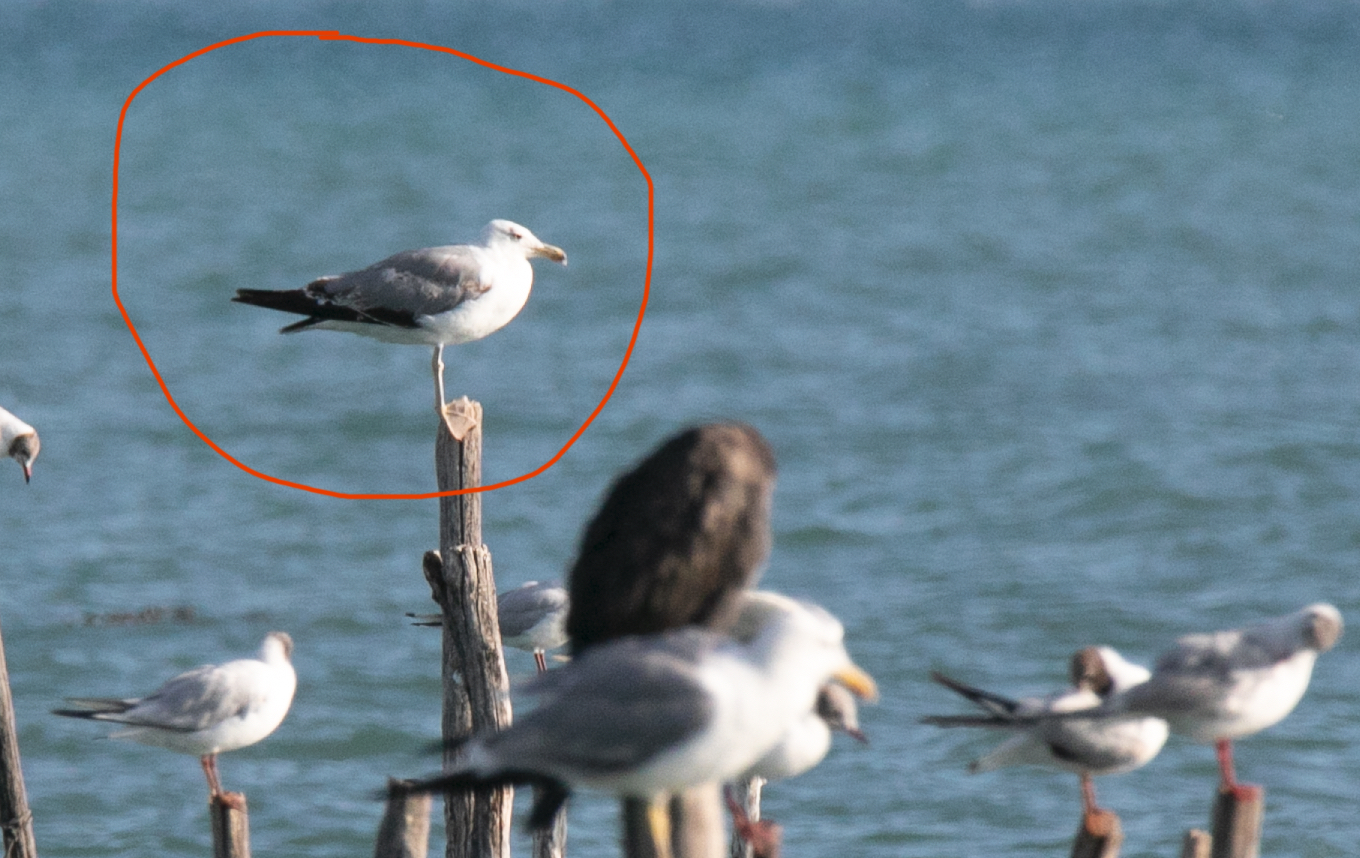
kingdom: Animalia
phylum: Chordata
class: Aves
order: Charadriiformes
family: Laridae
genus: Larus
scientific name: Larus michahellis
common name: Yellow-legged gull
